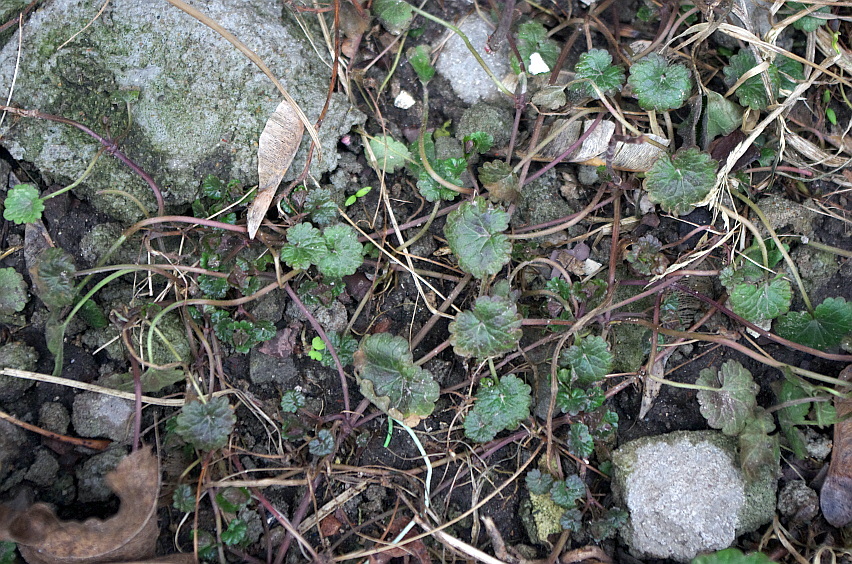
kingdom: Plantae
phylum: Tracheophyta
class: Magnoliopsida
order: Lamiales
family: Lamiaceae
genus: Glechoma
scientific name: Glechoma hederacea
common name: Ground ivy
